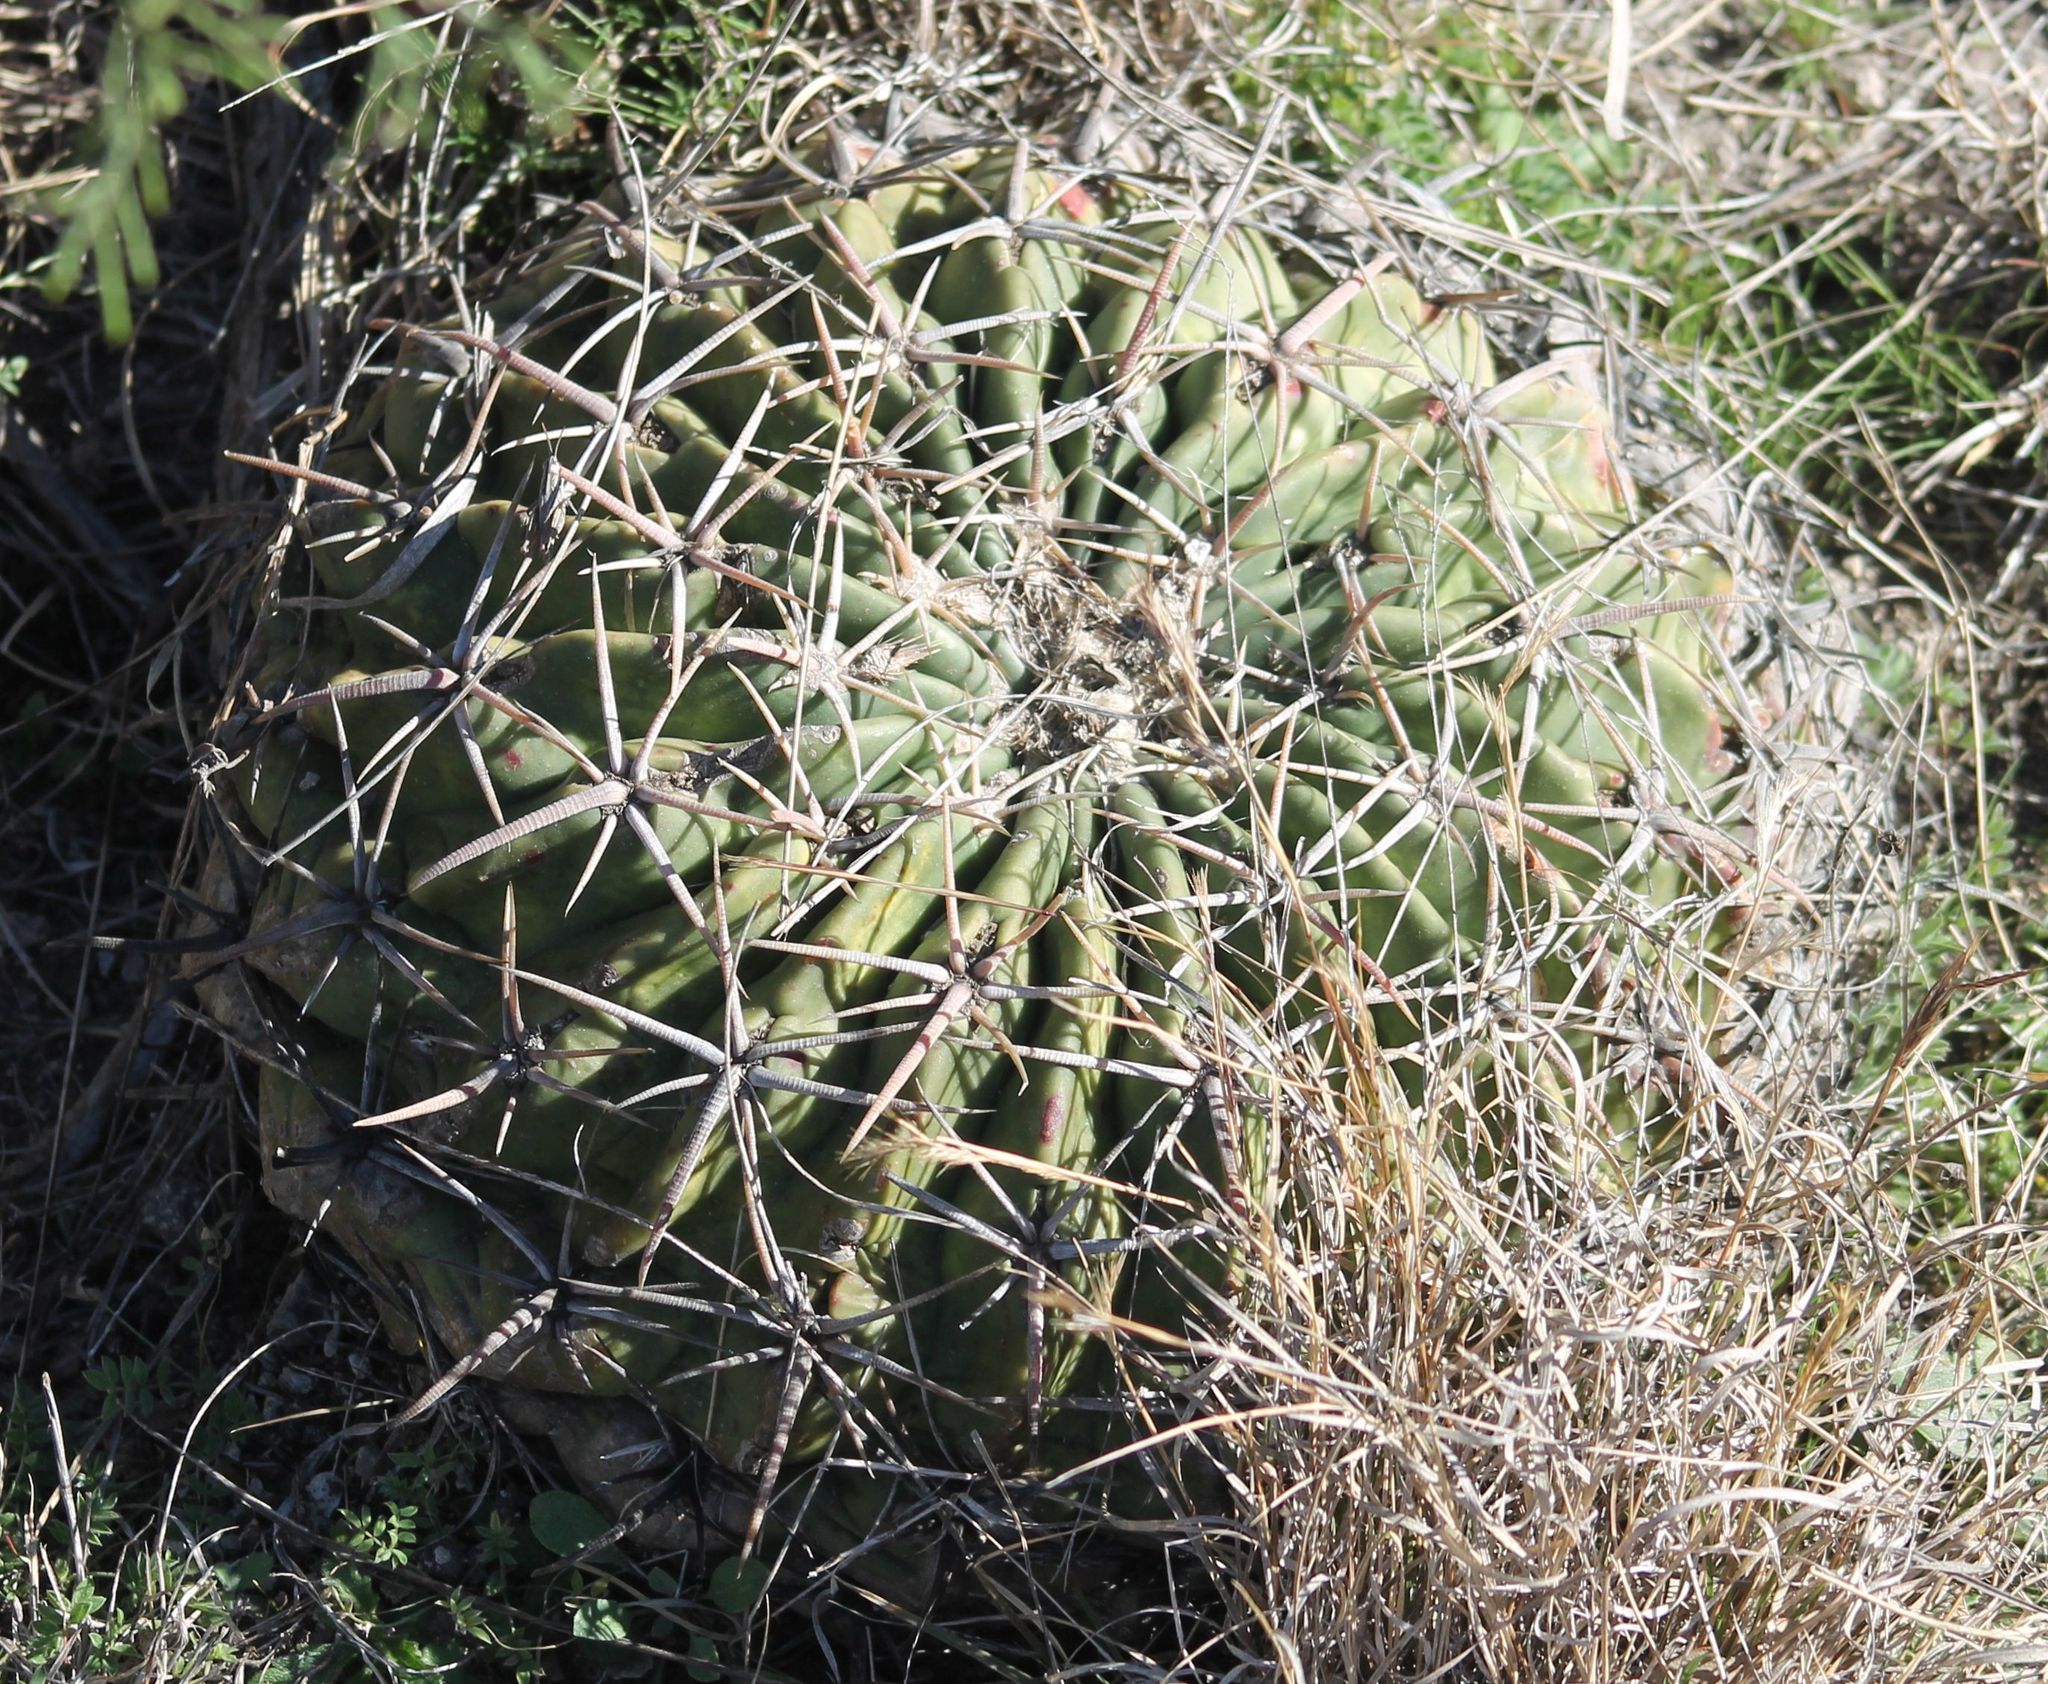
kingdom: Plantae
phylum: Tracheophyta
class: Magnoliopsida
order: Caryophyllales
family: Cactaceae
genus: Echinocactus
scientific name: Echinocactus texensis
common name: Devil's pincushion
